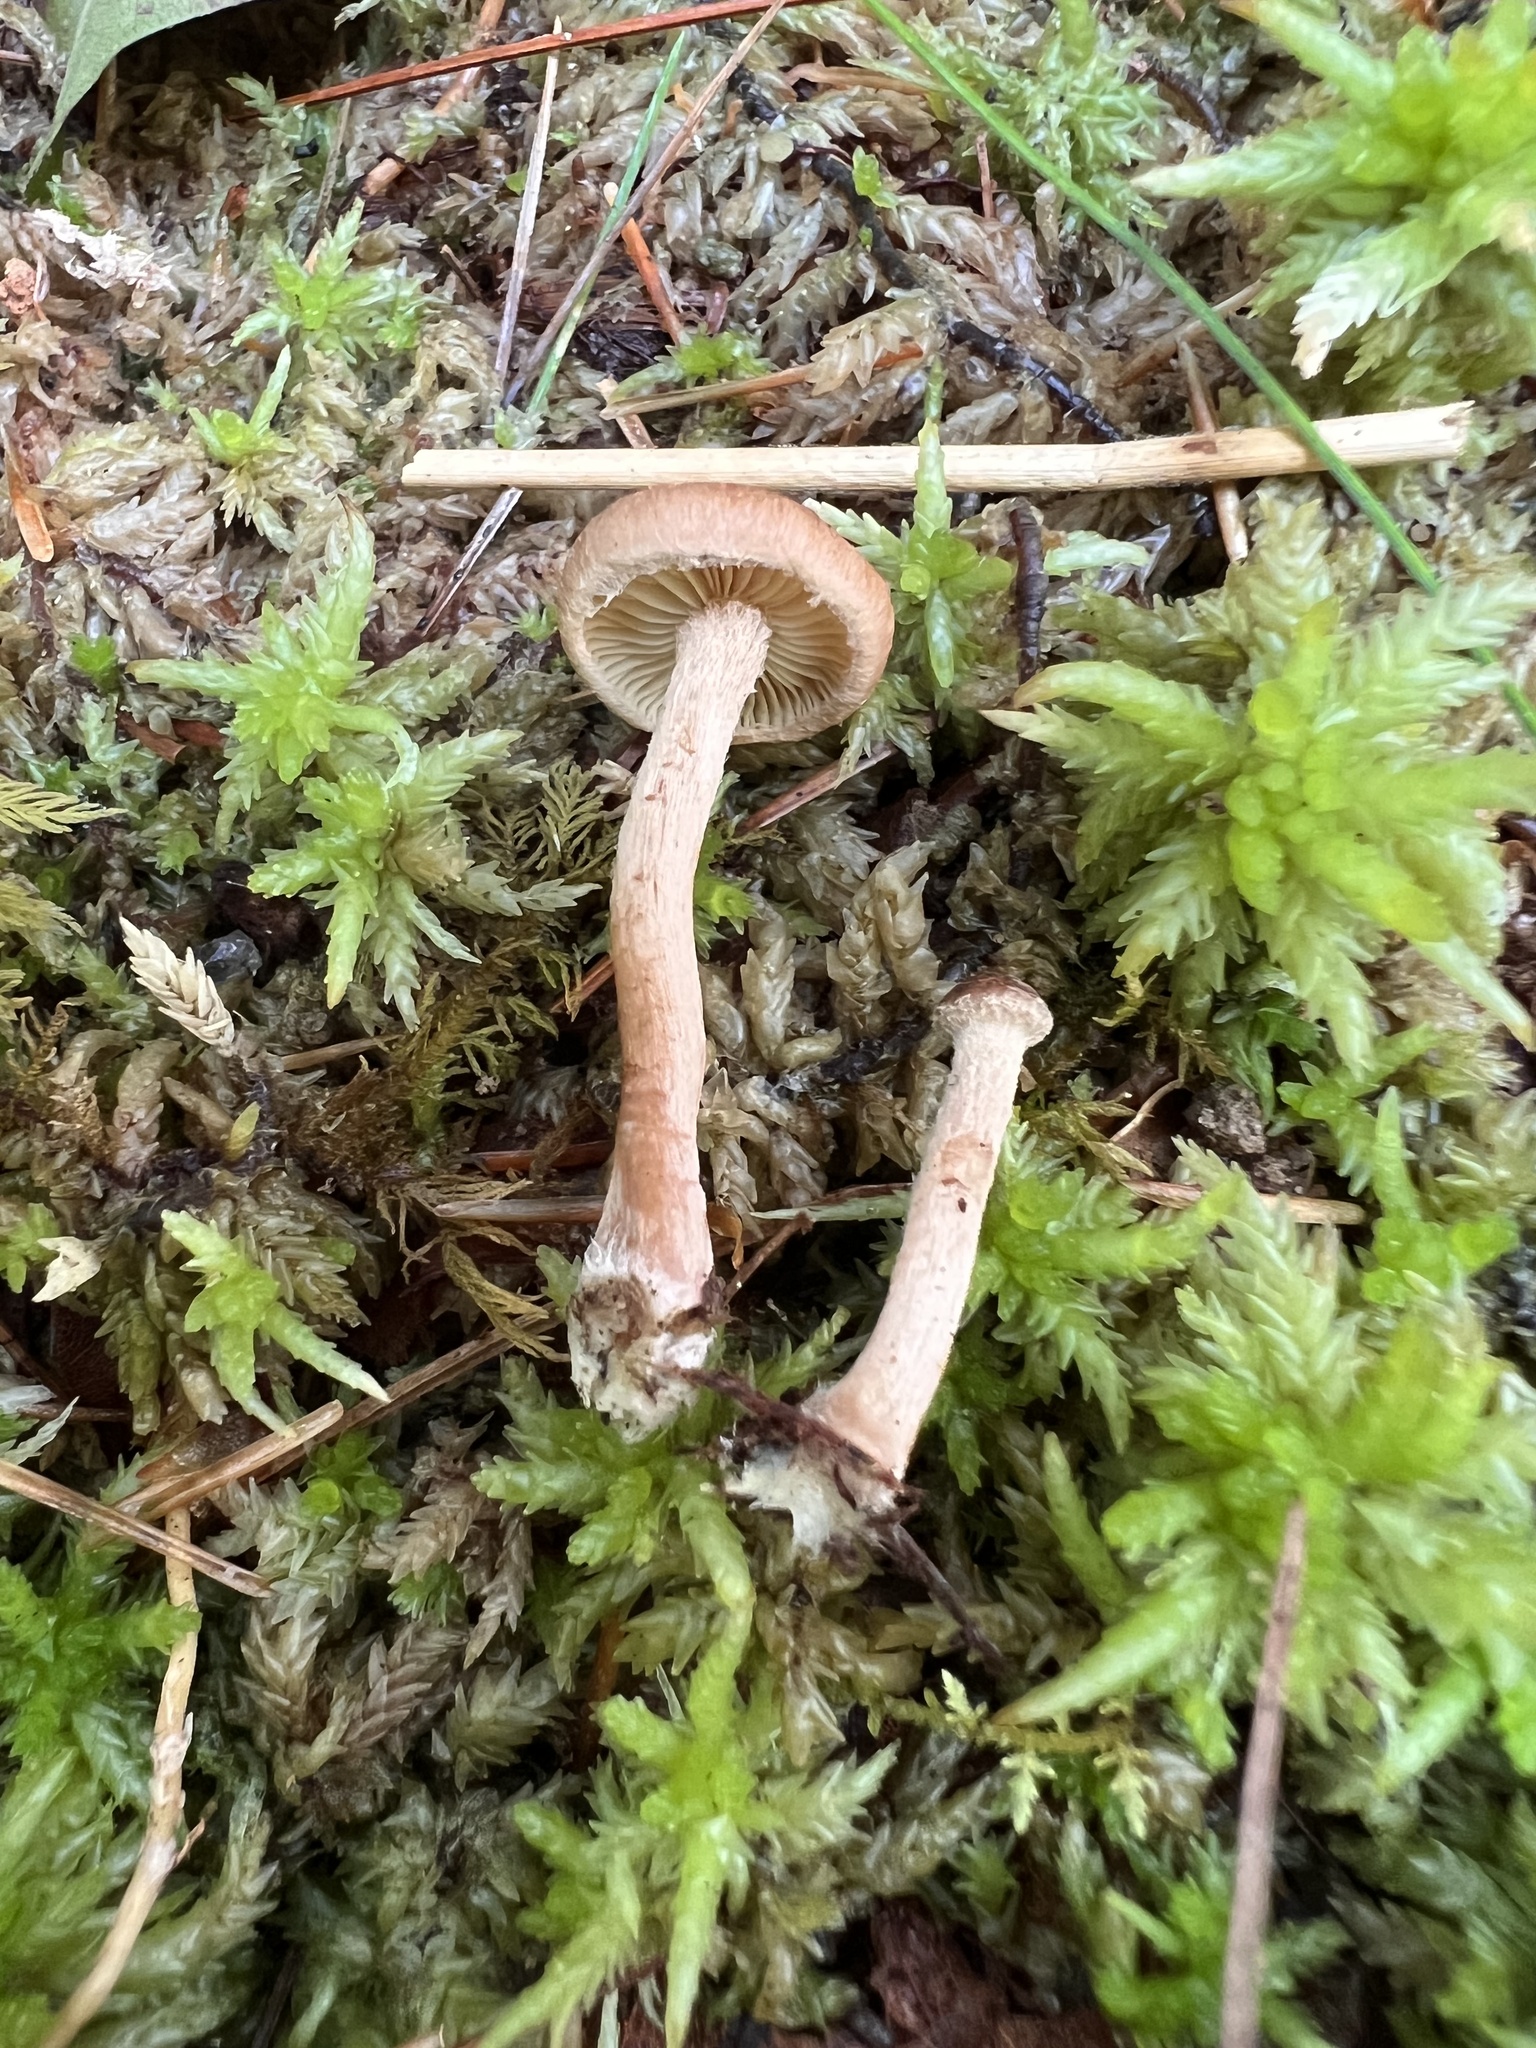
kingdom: Fungi
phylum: Basidiomycota
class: Agaricomycetes
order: Agaricales
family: Strophariaceae
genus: Pholiota
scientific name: Pholiota stratosa
